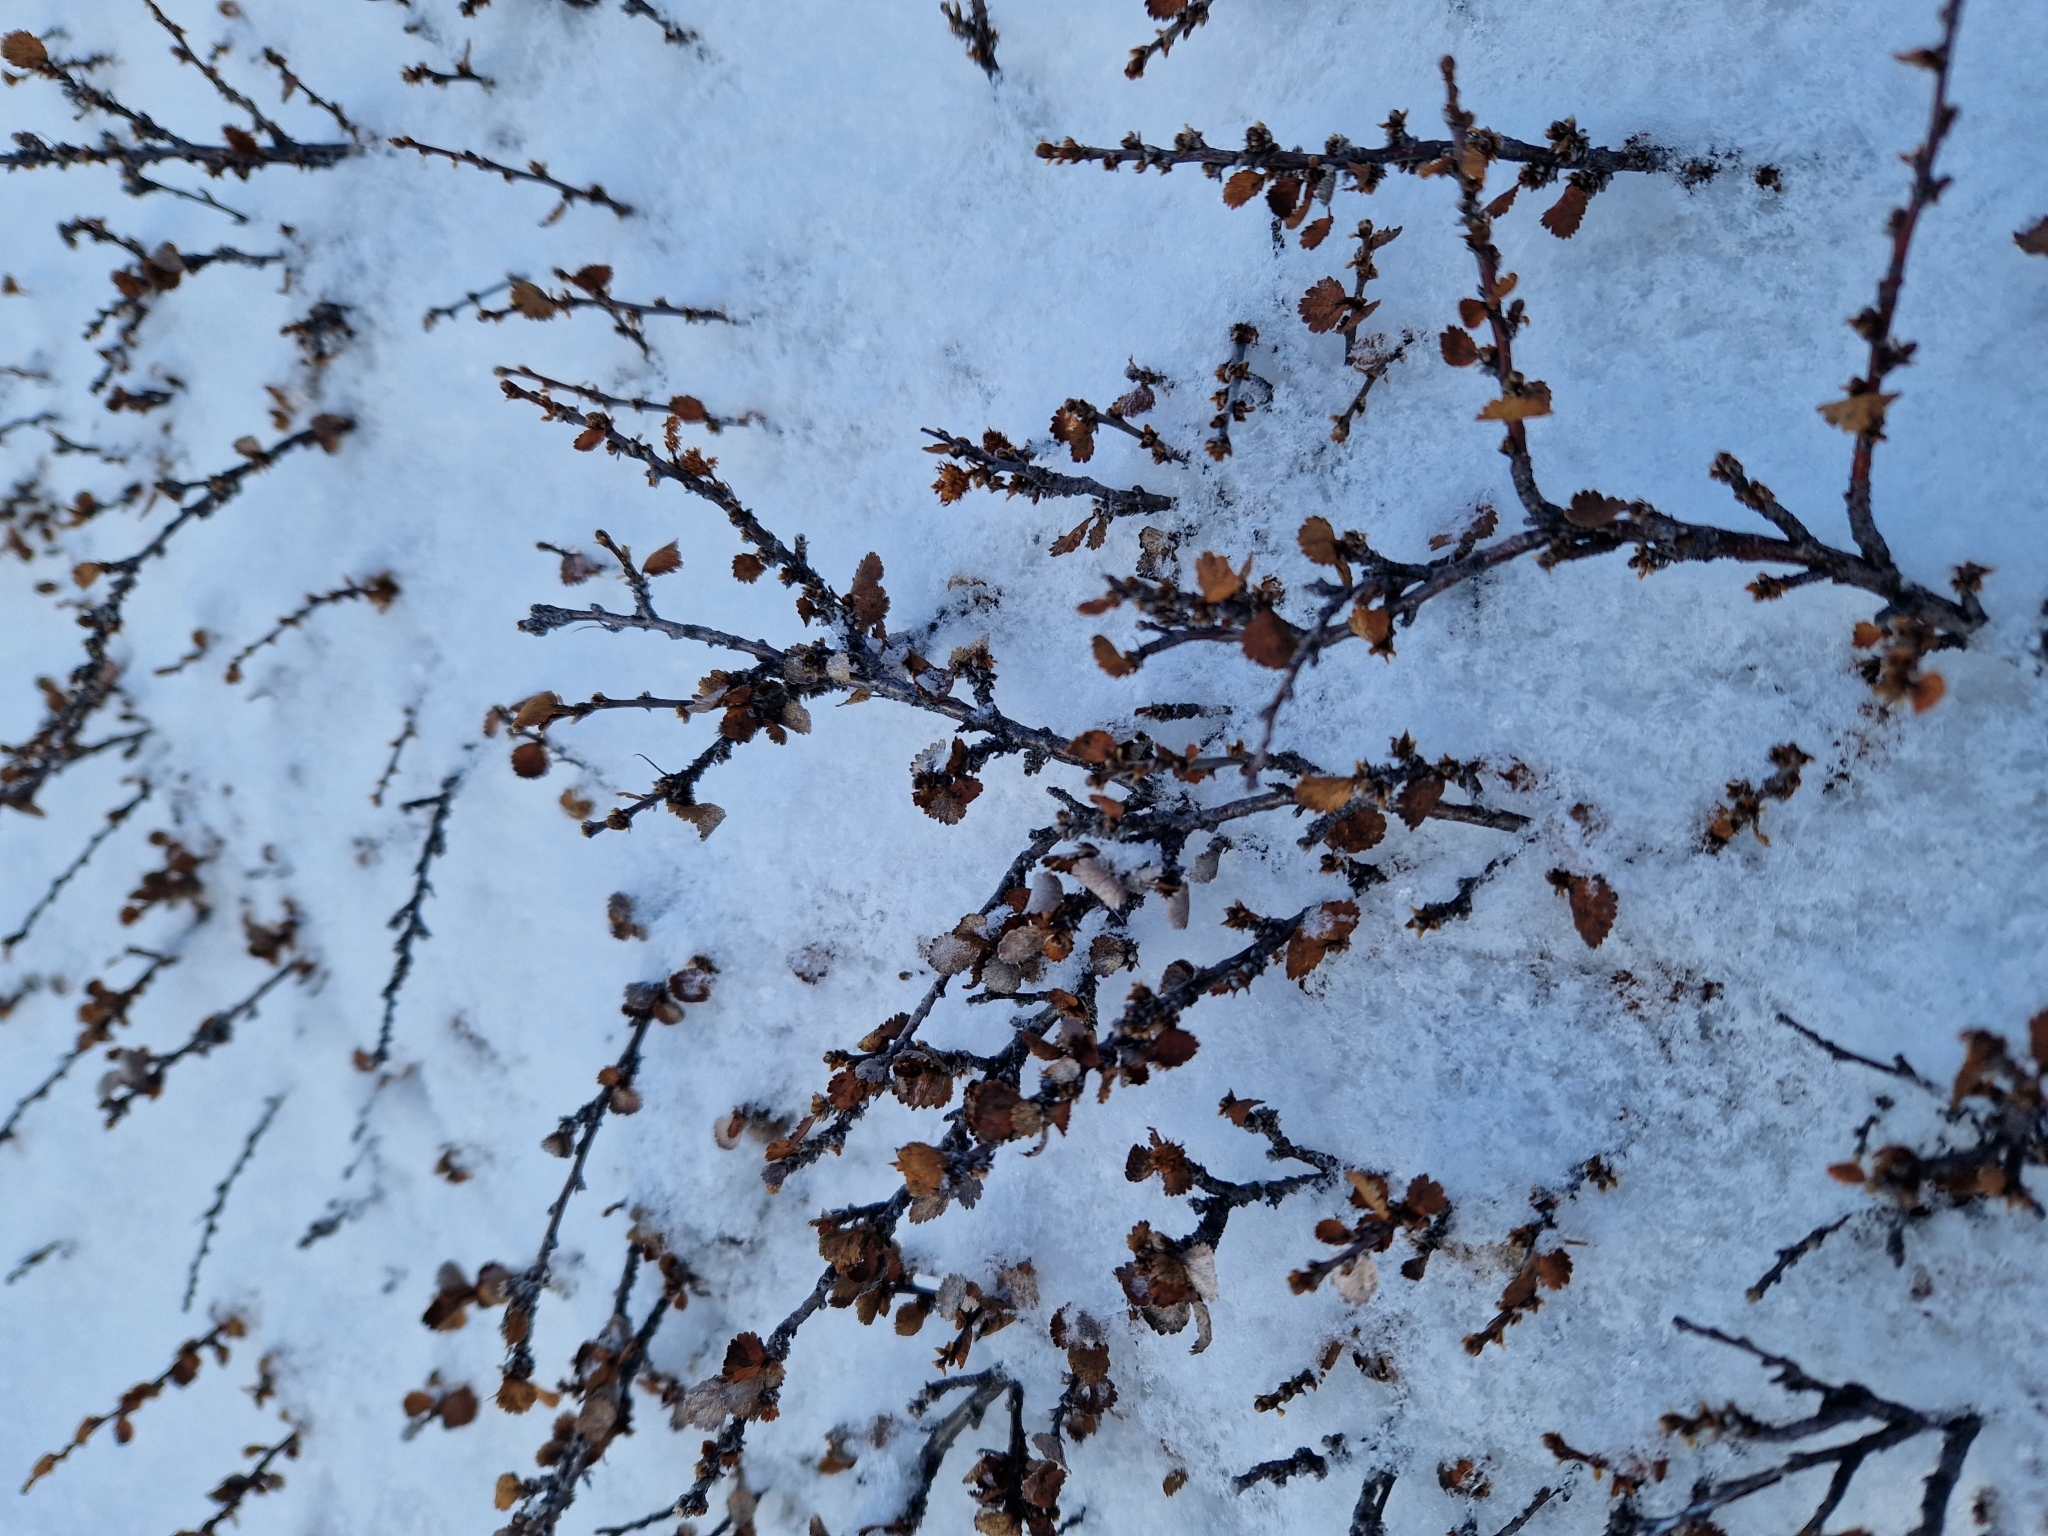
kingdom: Plantae
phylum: Tracheophyta
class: Magnoliopsida
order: Fagales
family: Betulaceae
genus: Betula
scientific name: Betula nana
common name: Arctic dwarf birch
